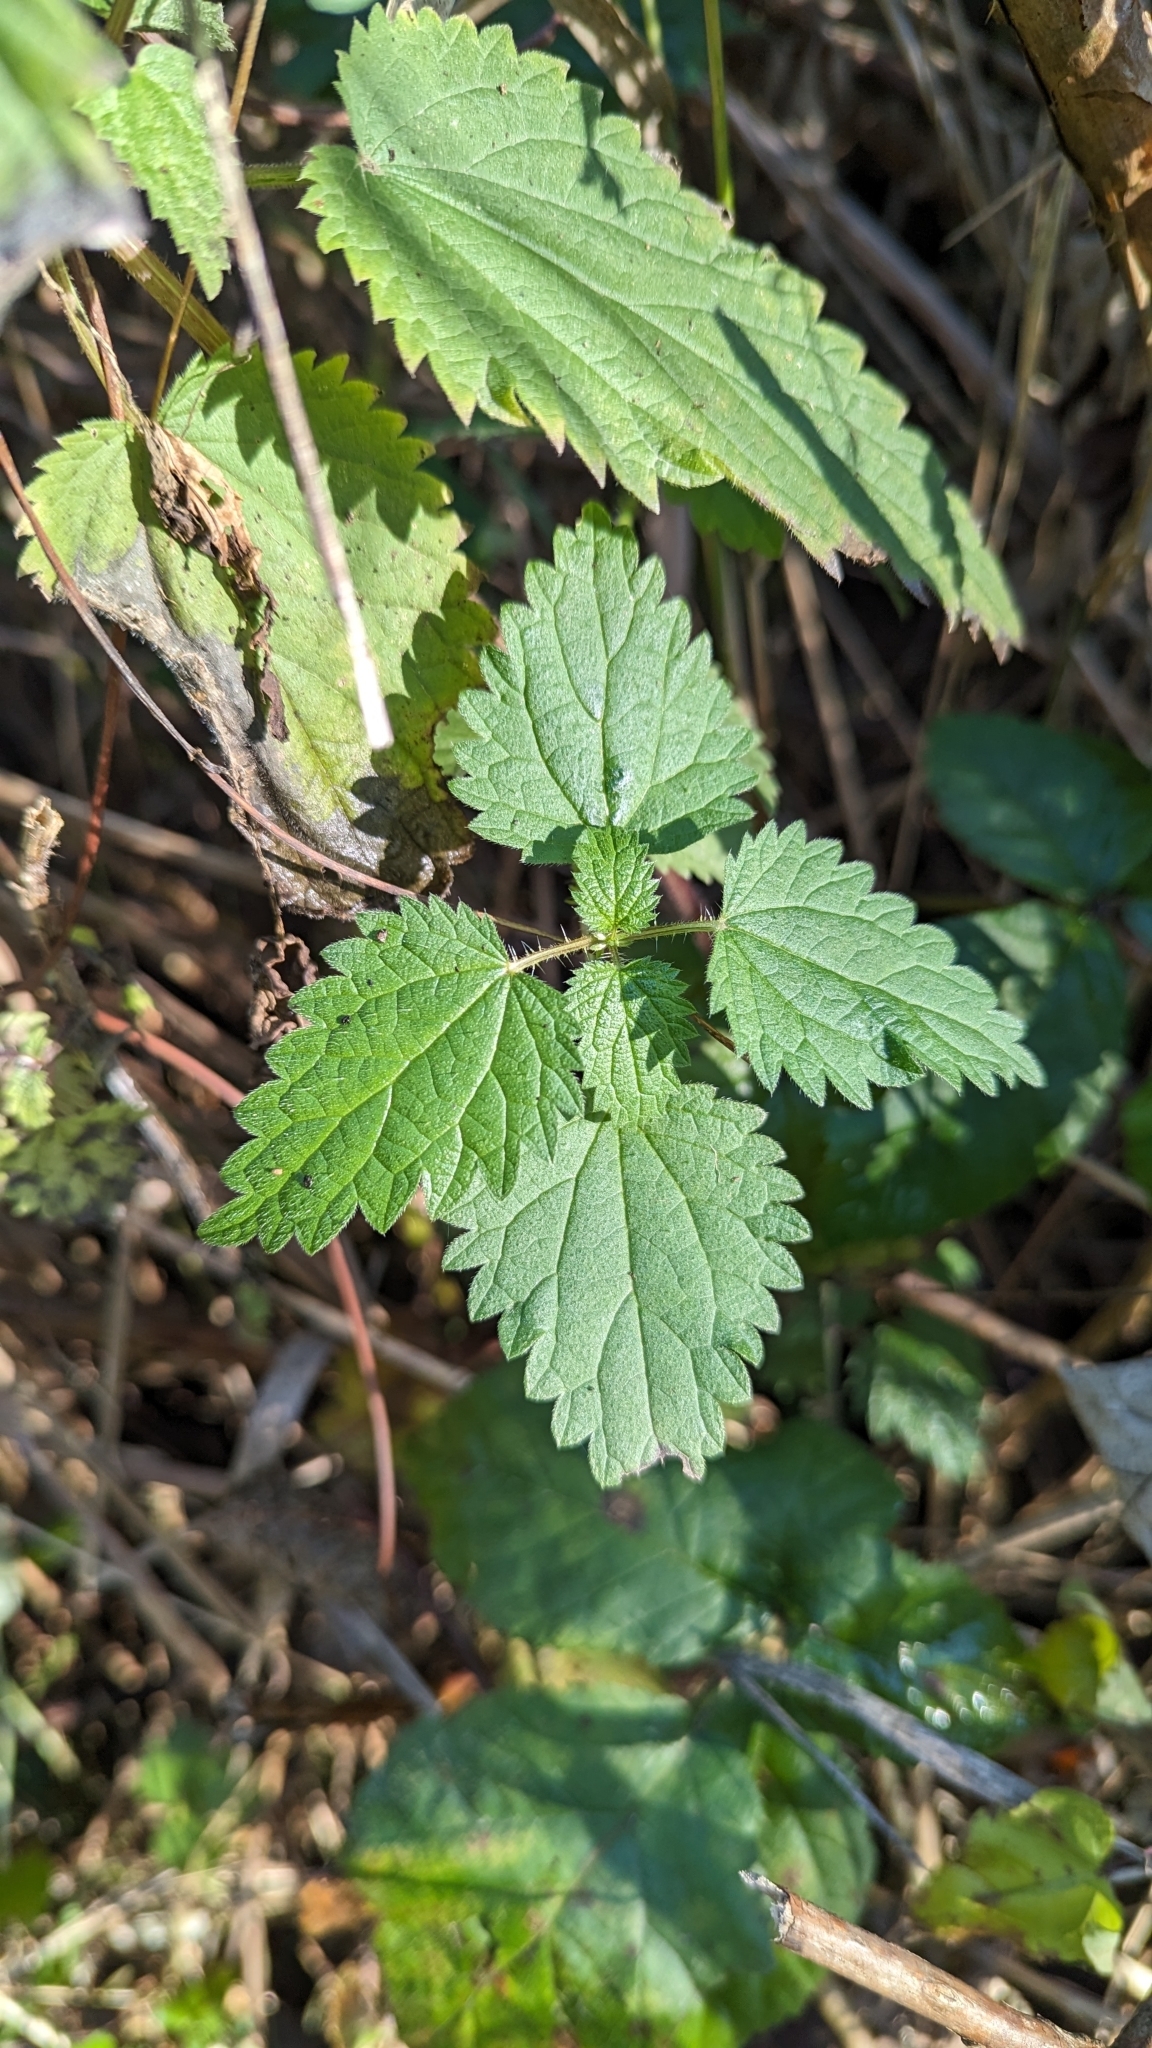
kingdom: Plantae
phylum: Tracheophyta
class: Magnoliopsida
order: Rosales
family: Urticaceae
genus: Urtica
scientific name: Urtica dioica
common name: Common nettle
